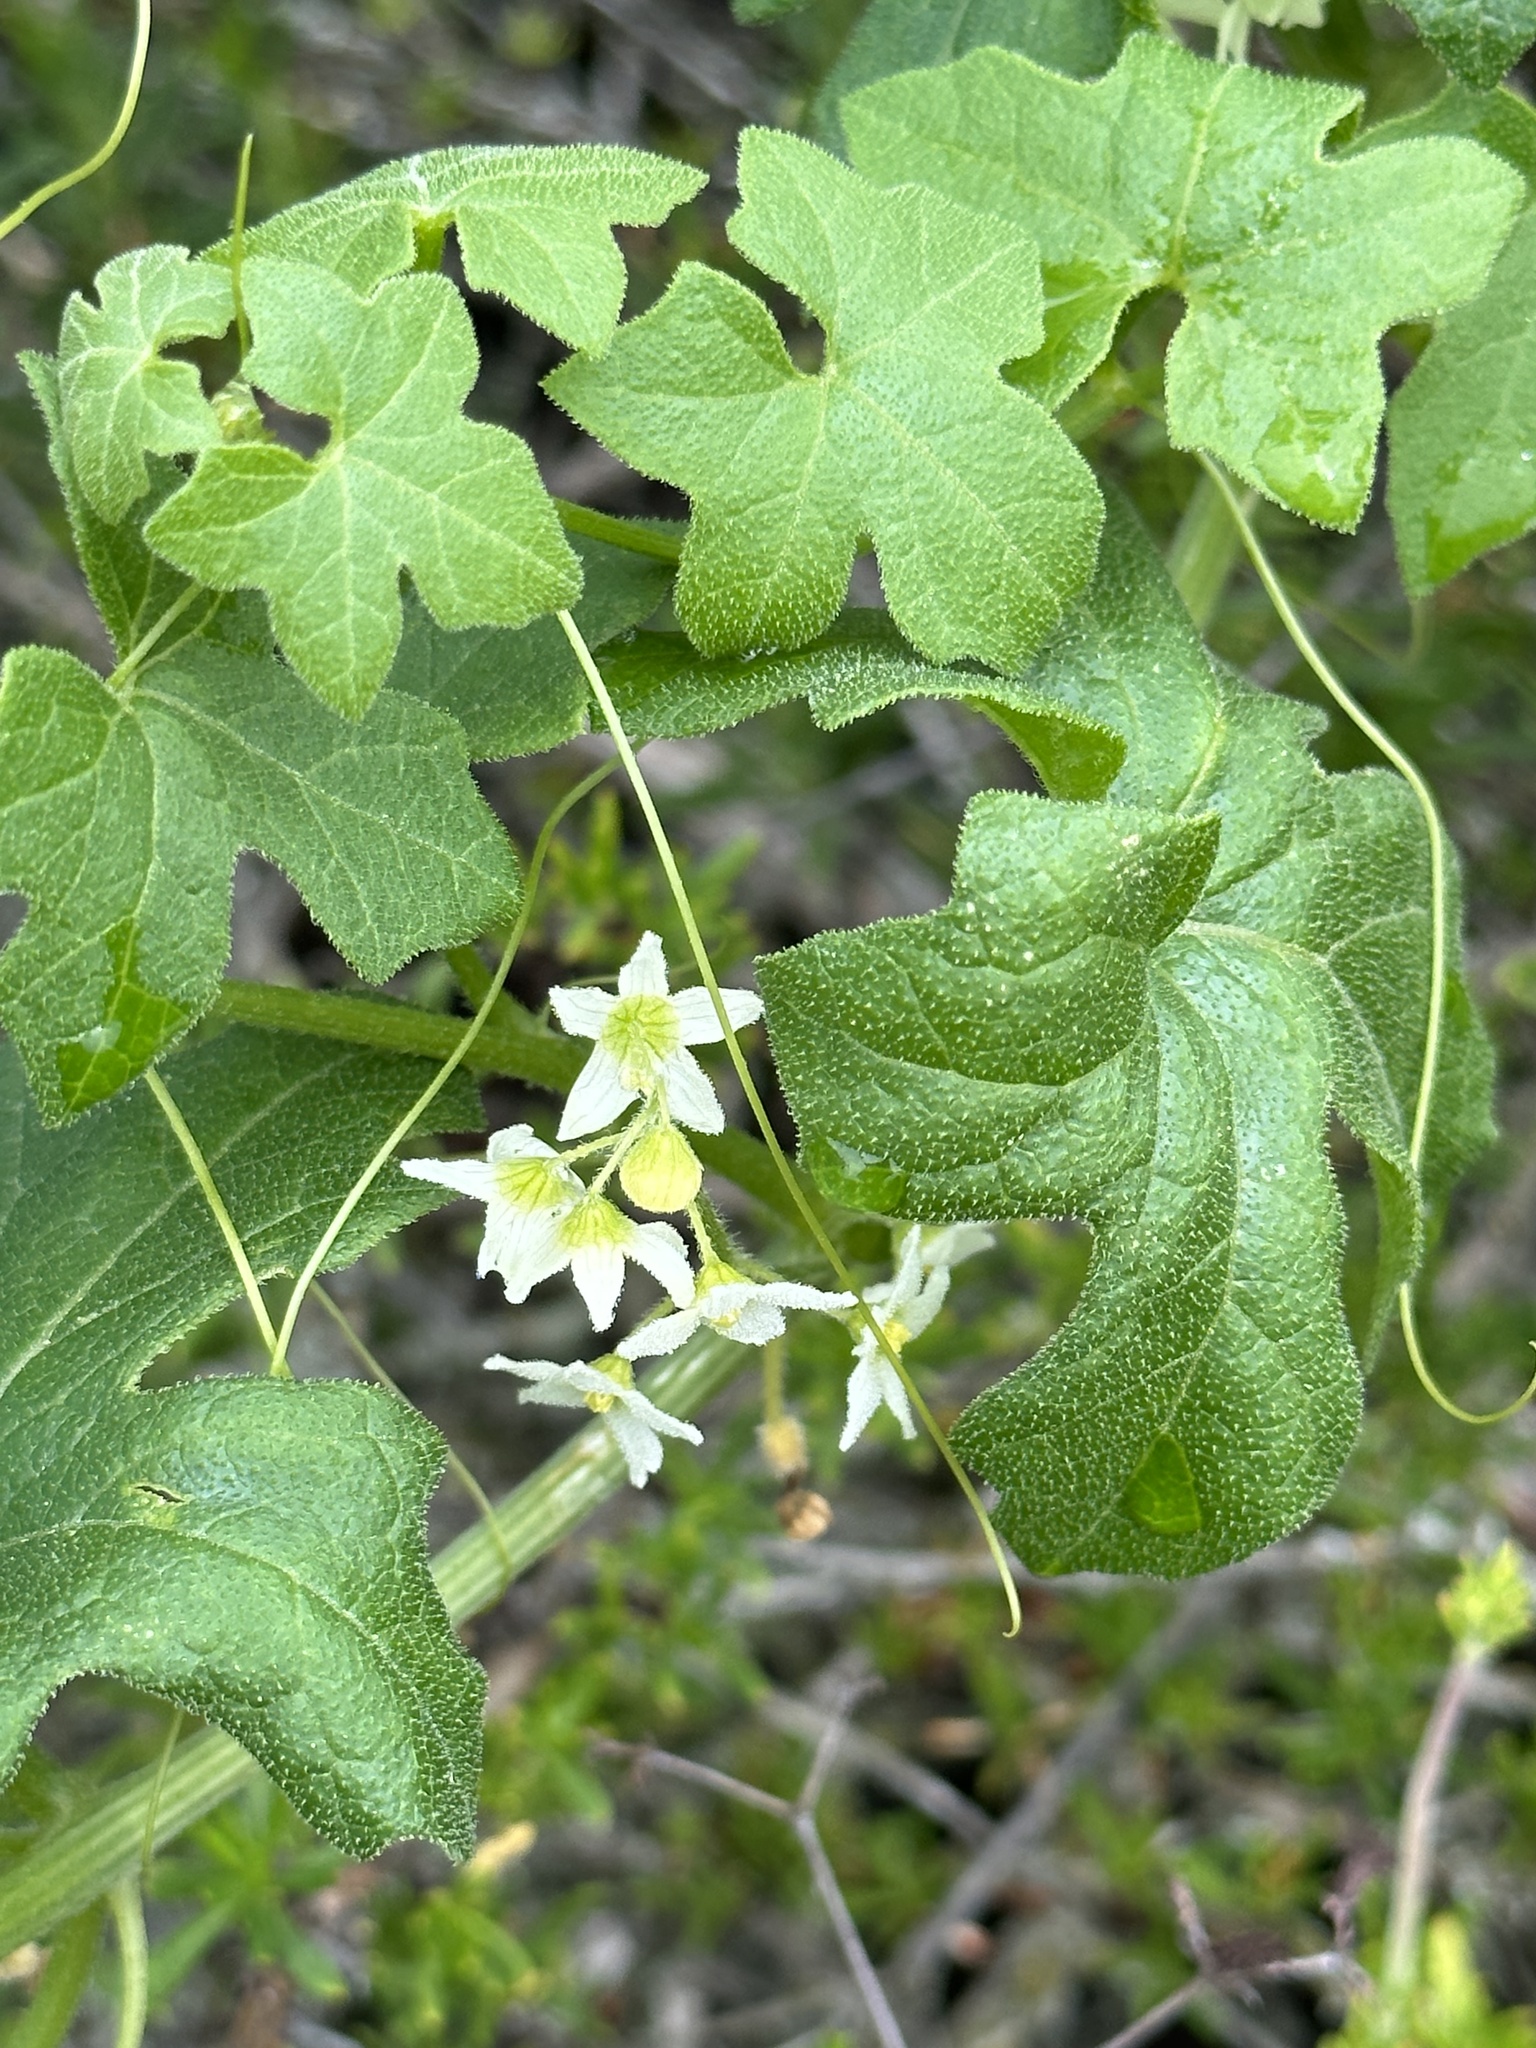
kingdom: Plantae
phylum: Tracheophyta
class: Magnoliopsida
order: Cucurbitales
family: Cucurbitaceae
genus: Marah
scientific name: Marah macrocarpa
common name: Cucamonga manroot
